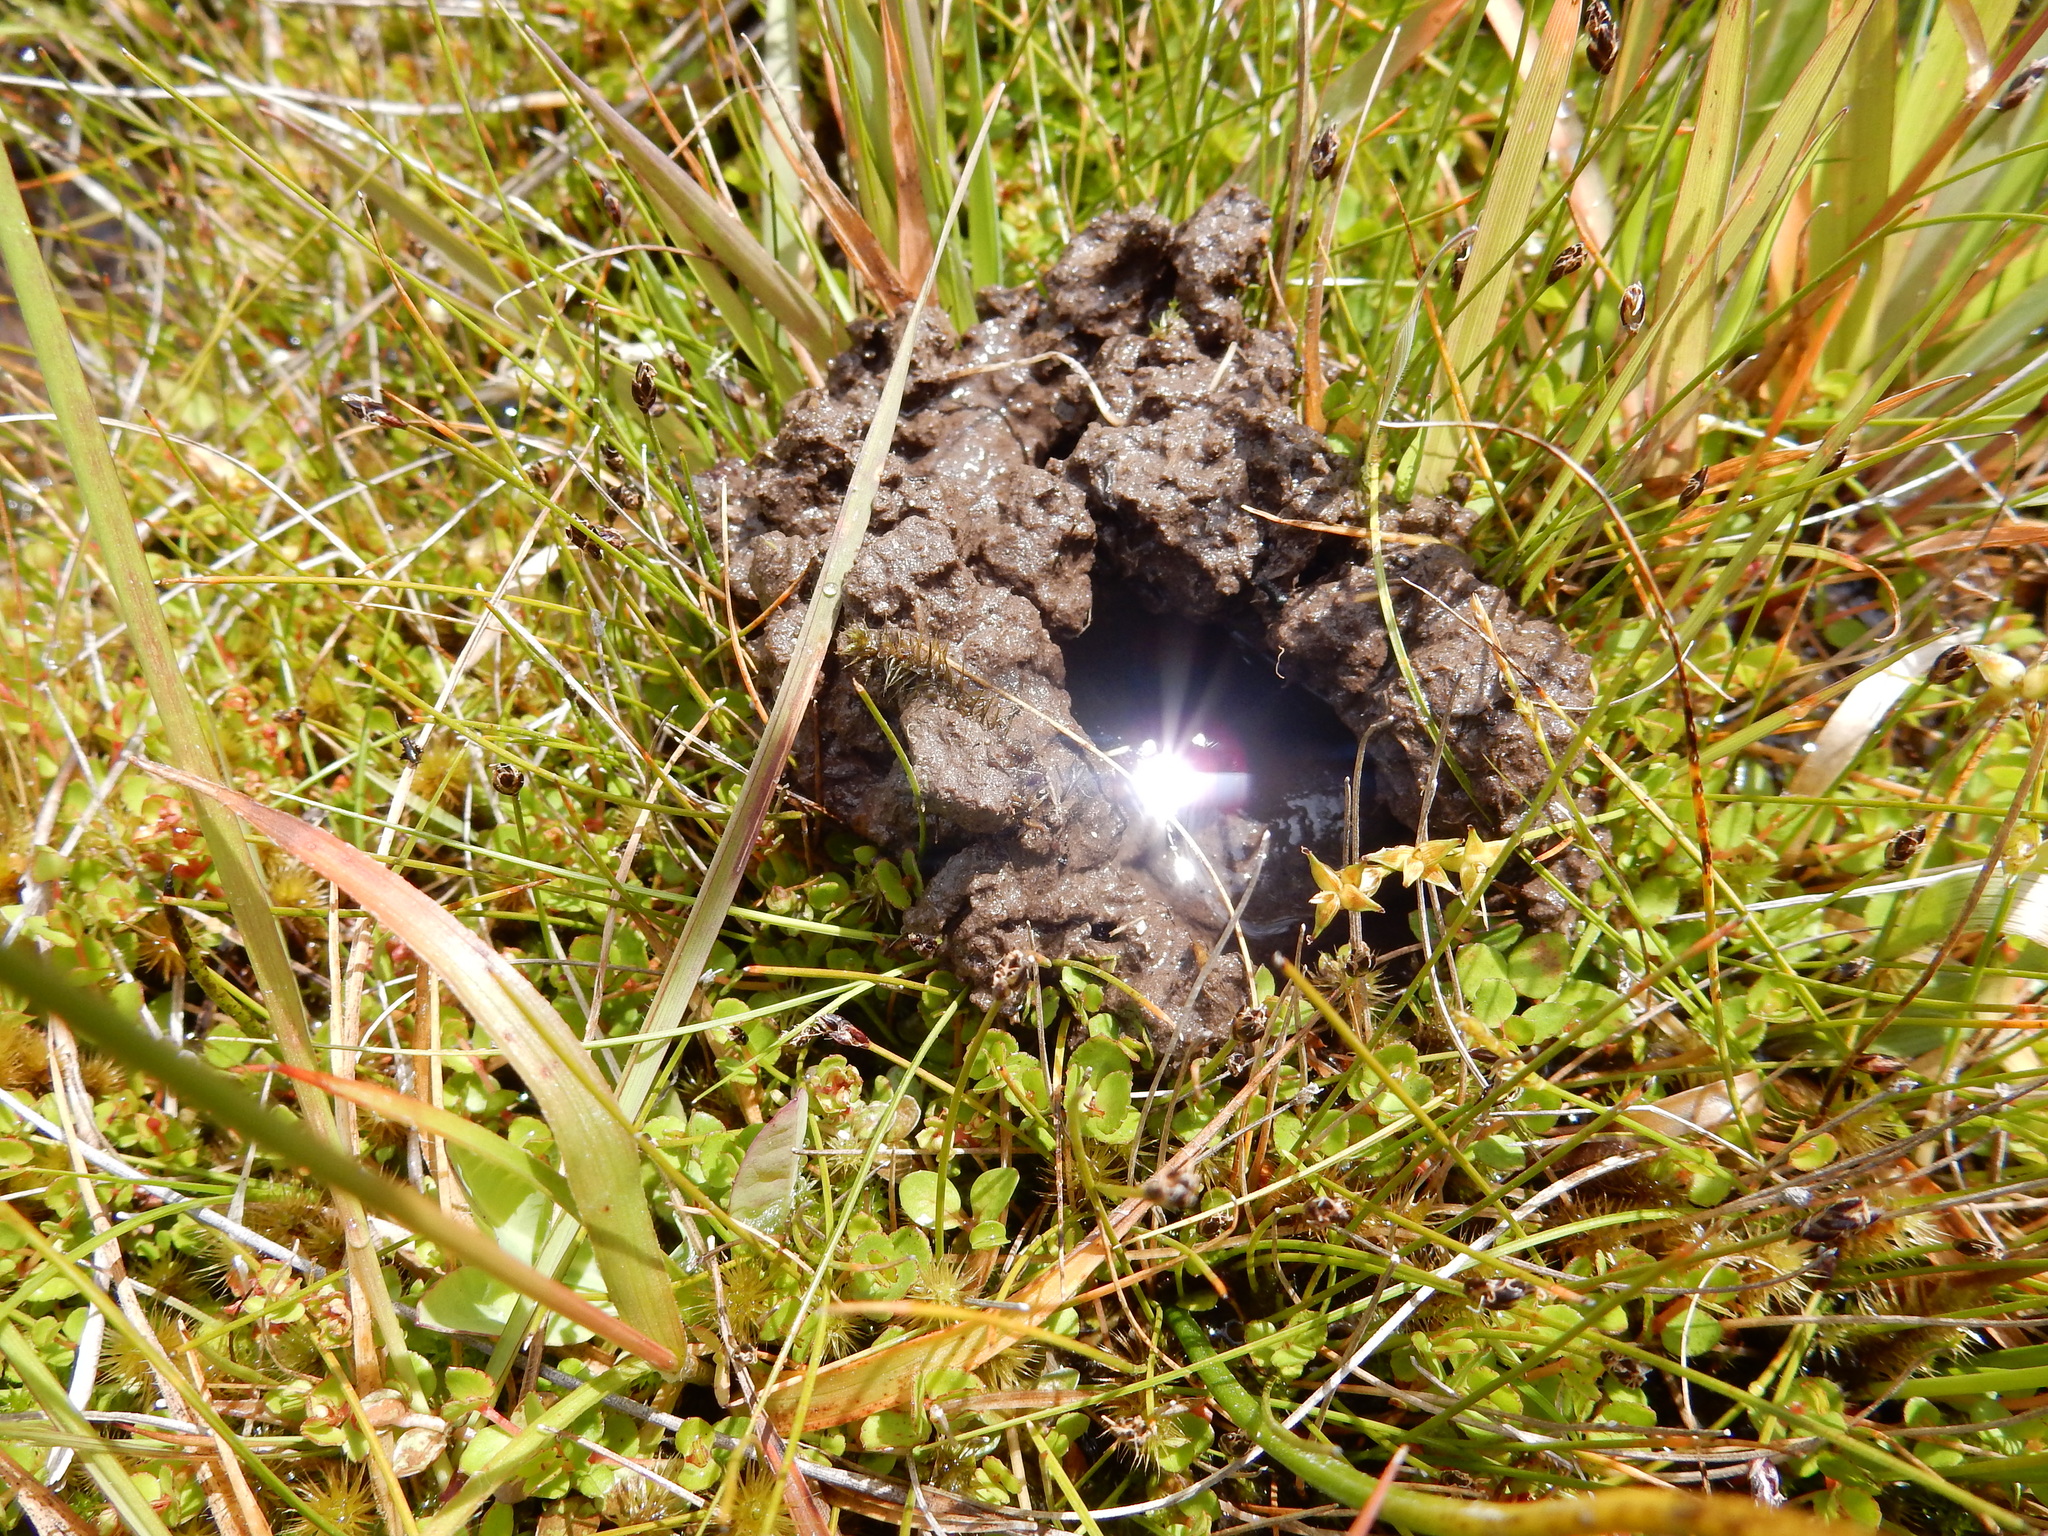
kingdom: Animalia
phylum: Arthropoda
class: Insecta
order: Odonata
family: Petaluridae
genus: Uropetala
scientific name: Uropetala chiltoni
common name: Mountain giant dragonfly
